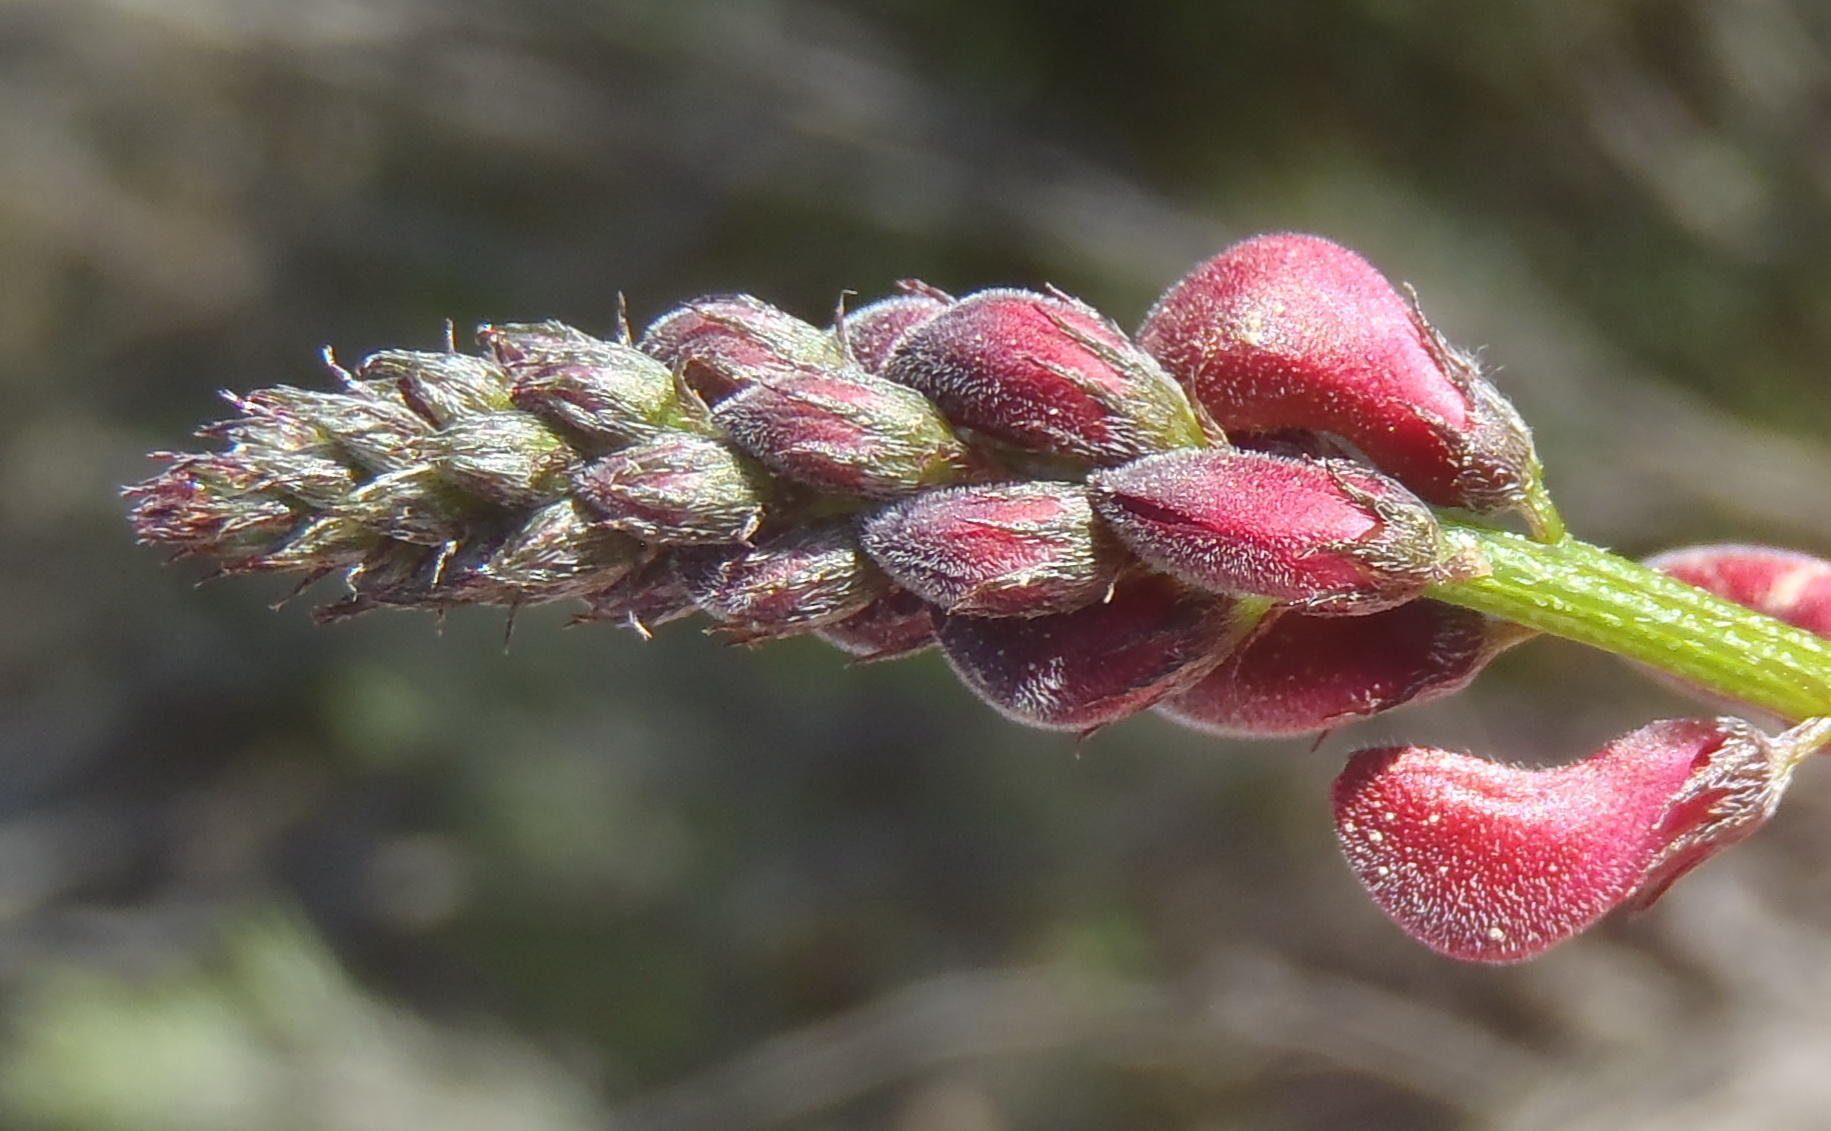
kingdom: Plantae
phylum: Tracheophyta
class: Magnoliopsida
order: Fabales
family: Fabaceae
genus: Indigofera
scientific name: Indigofera heterophylla
